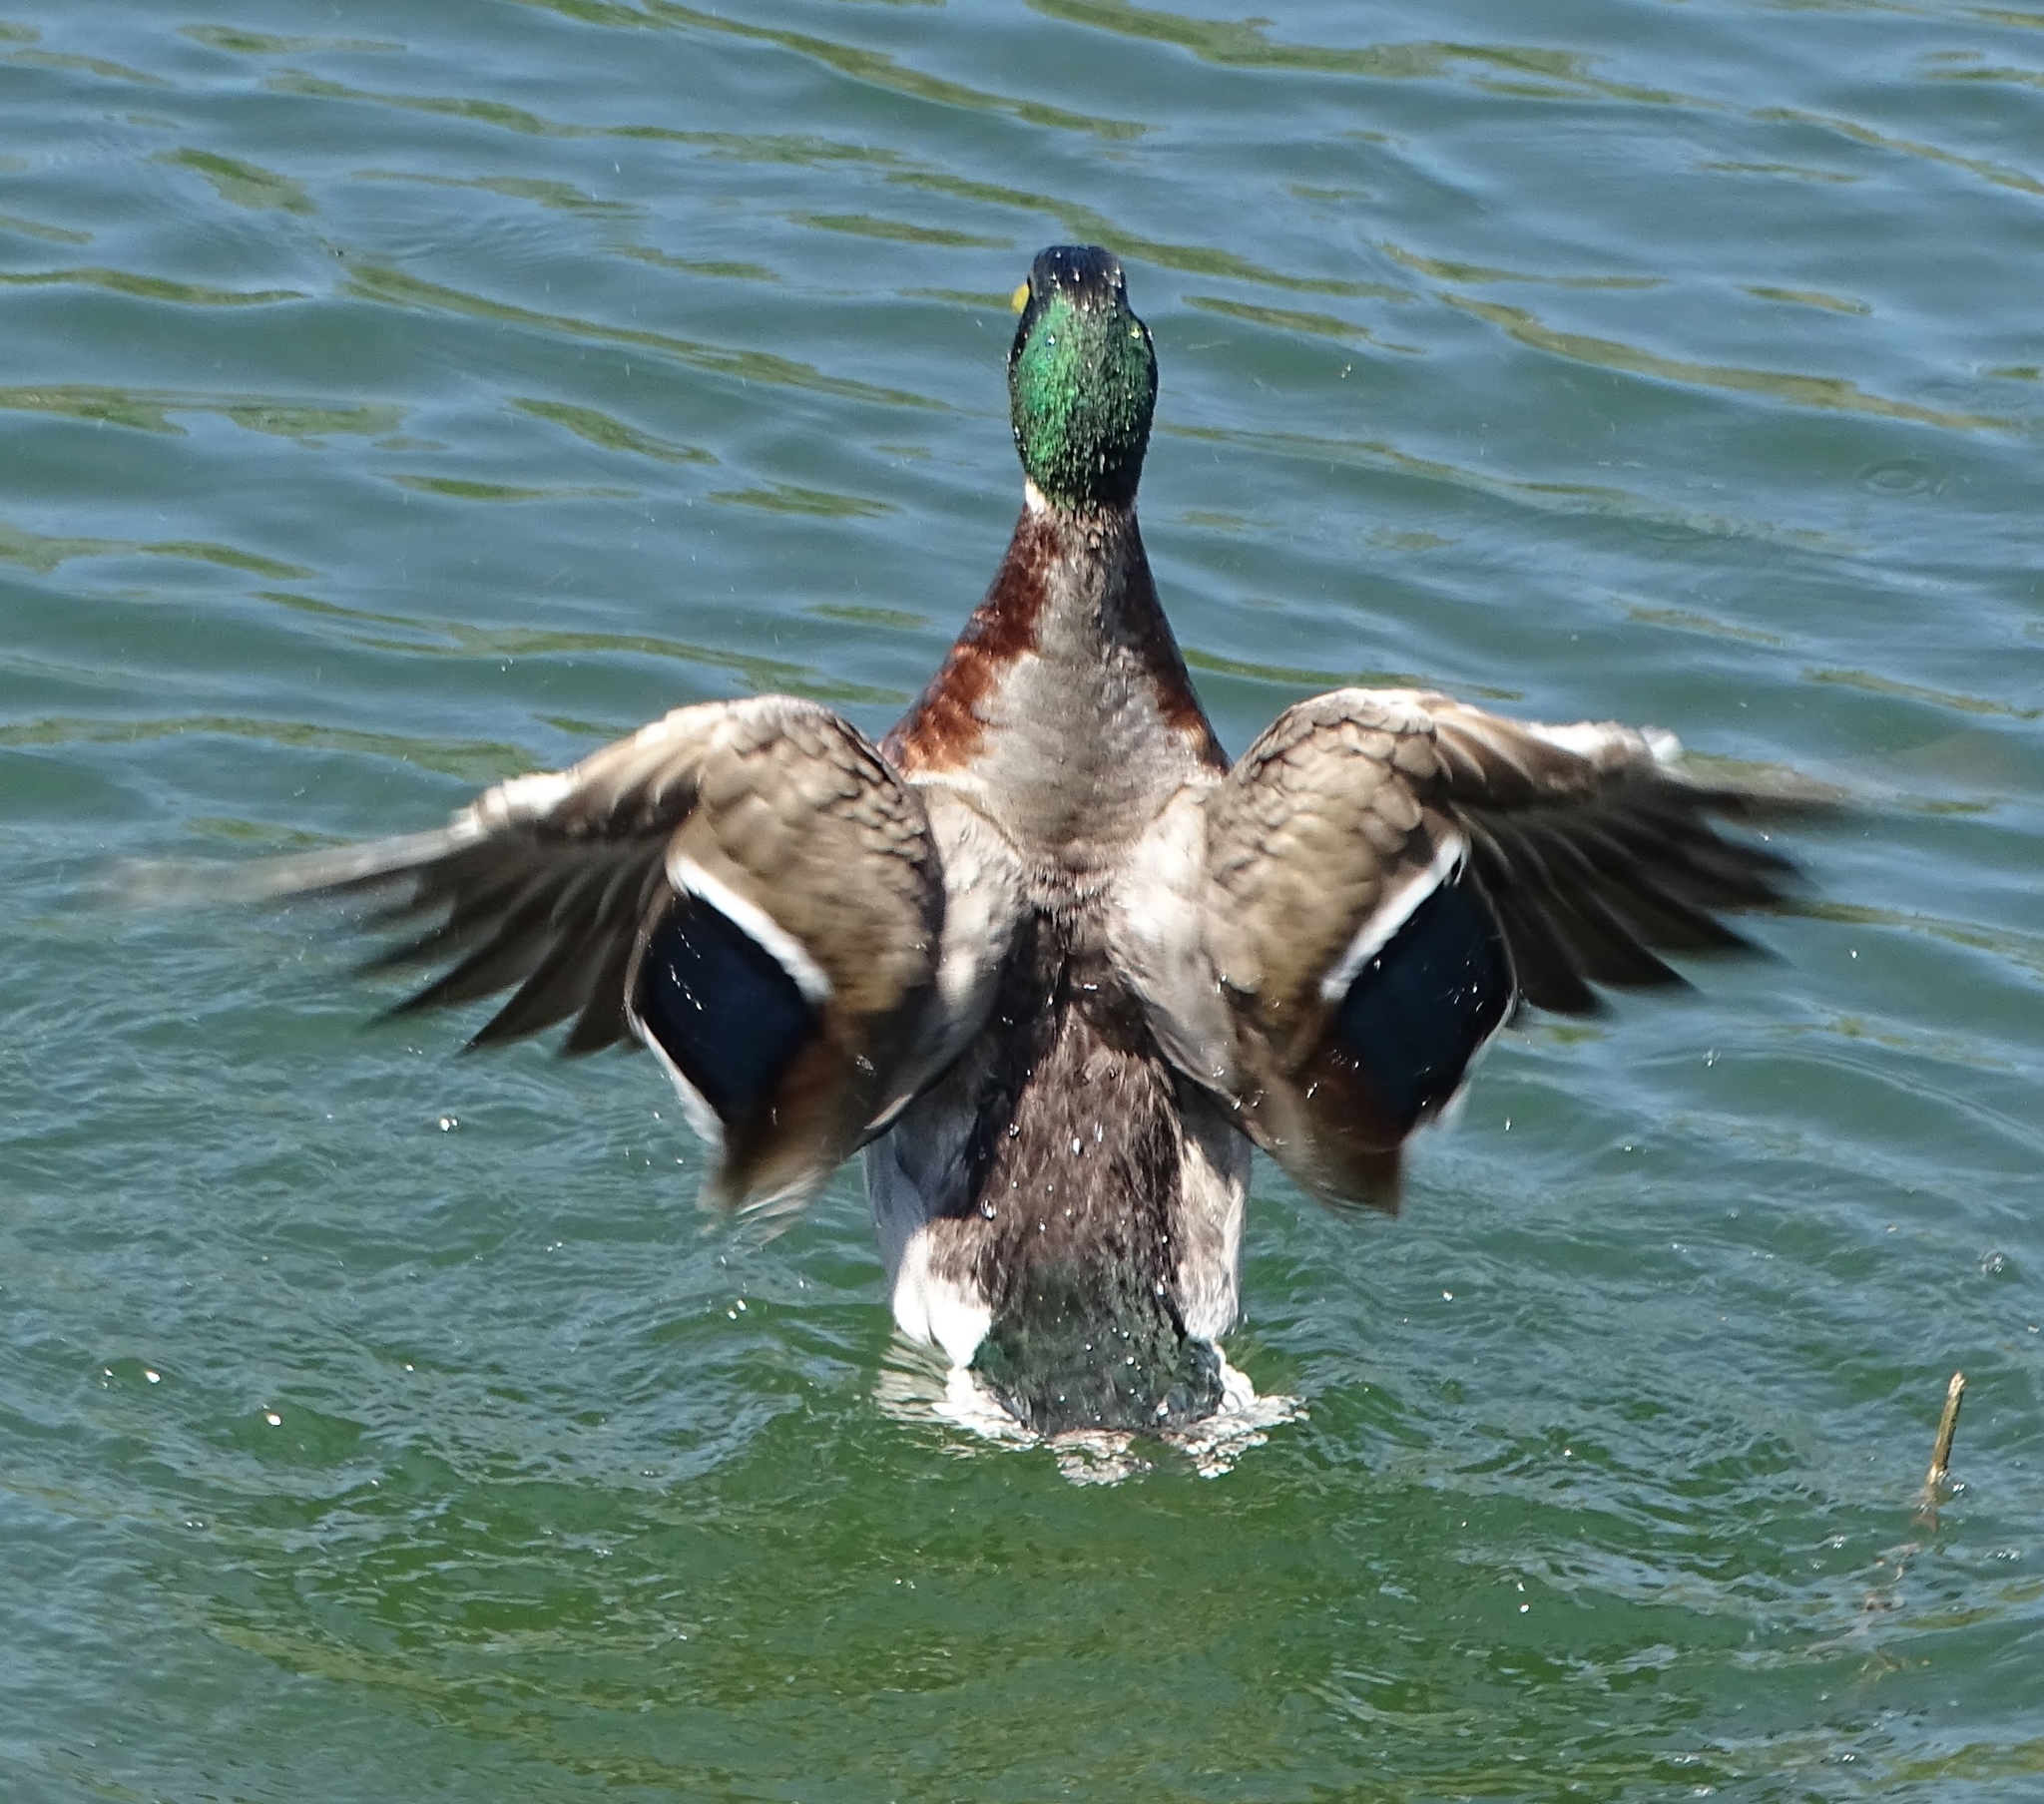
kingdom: Animalia
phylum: Chordata
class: Aves
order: Anseriformes
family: Anatidae
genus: Anas
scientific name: Anas platyrhynchos
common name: Mallard
